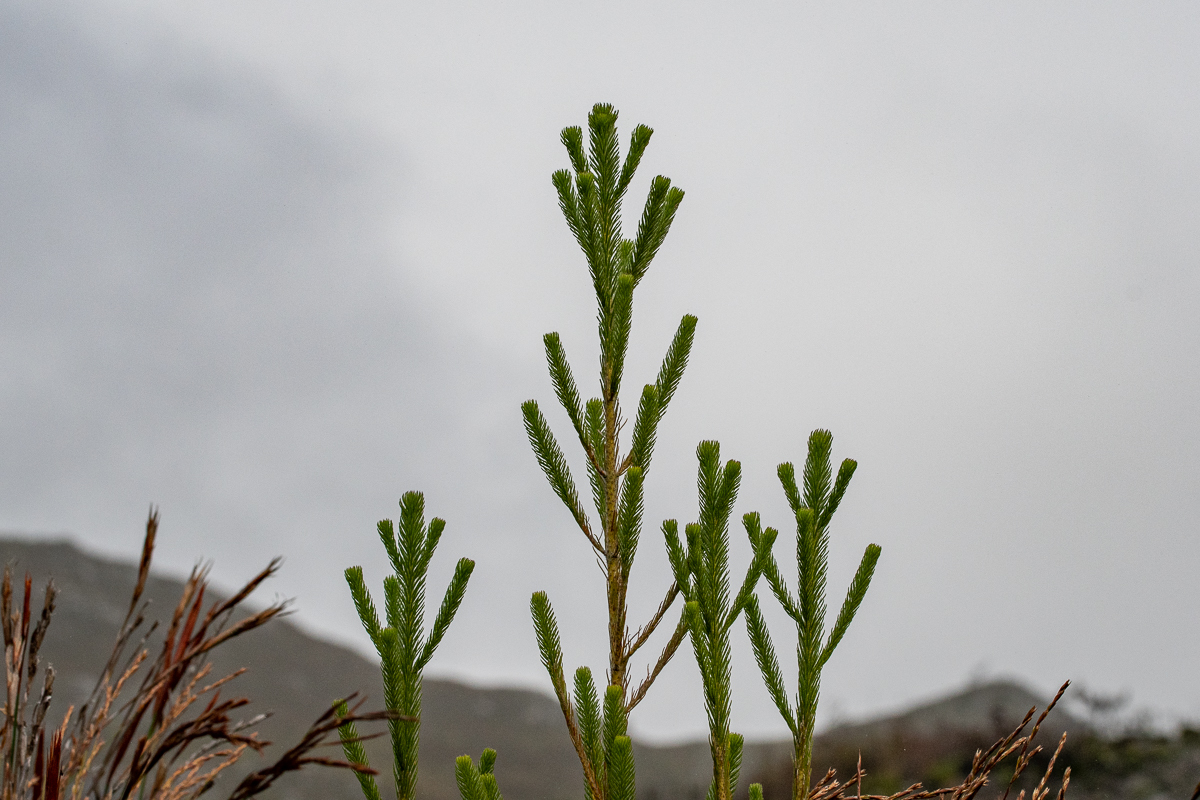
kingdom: Plantae
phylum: Tracheophyta
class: Magnoliopsida
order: Bruniales
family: Bruniaceae
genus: Berzelia
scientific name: Berzelia albiflora
